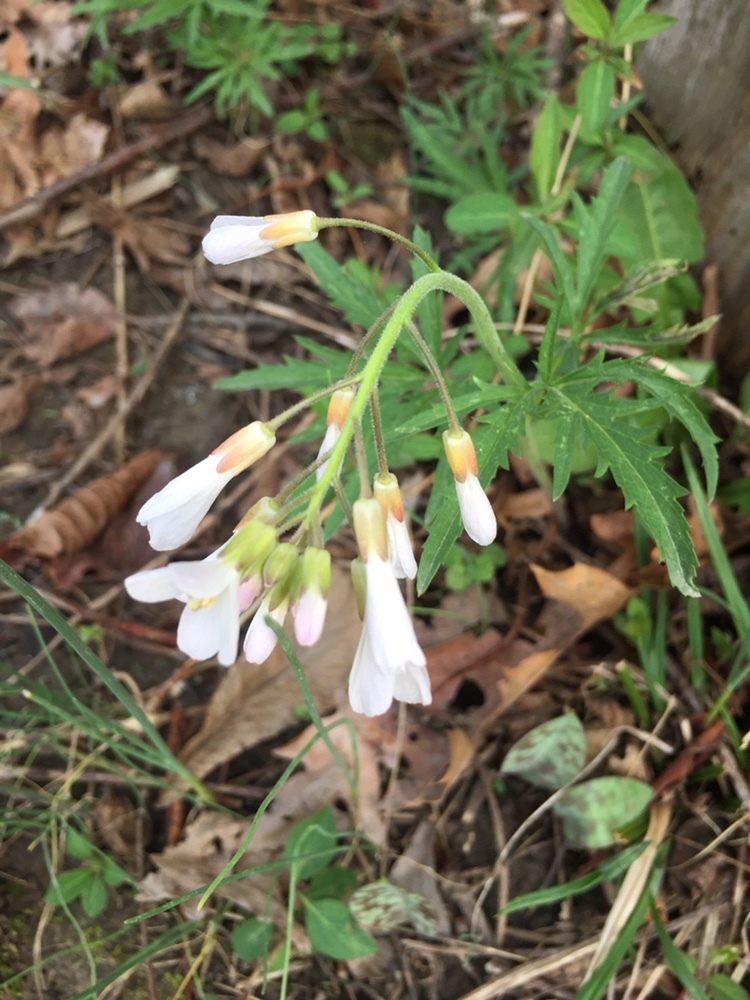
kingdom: Plantae
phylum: Tracheophyta
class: Magnoliopsida
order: Brassicales
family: Brassicaceae
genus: Cardamine
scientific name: Cardamine concatenata
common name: Cut-leaf toothcup
